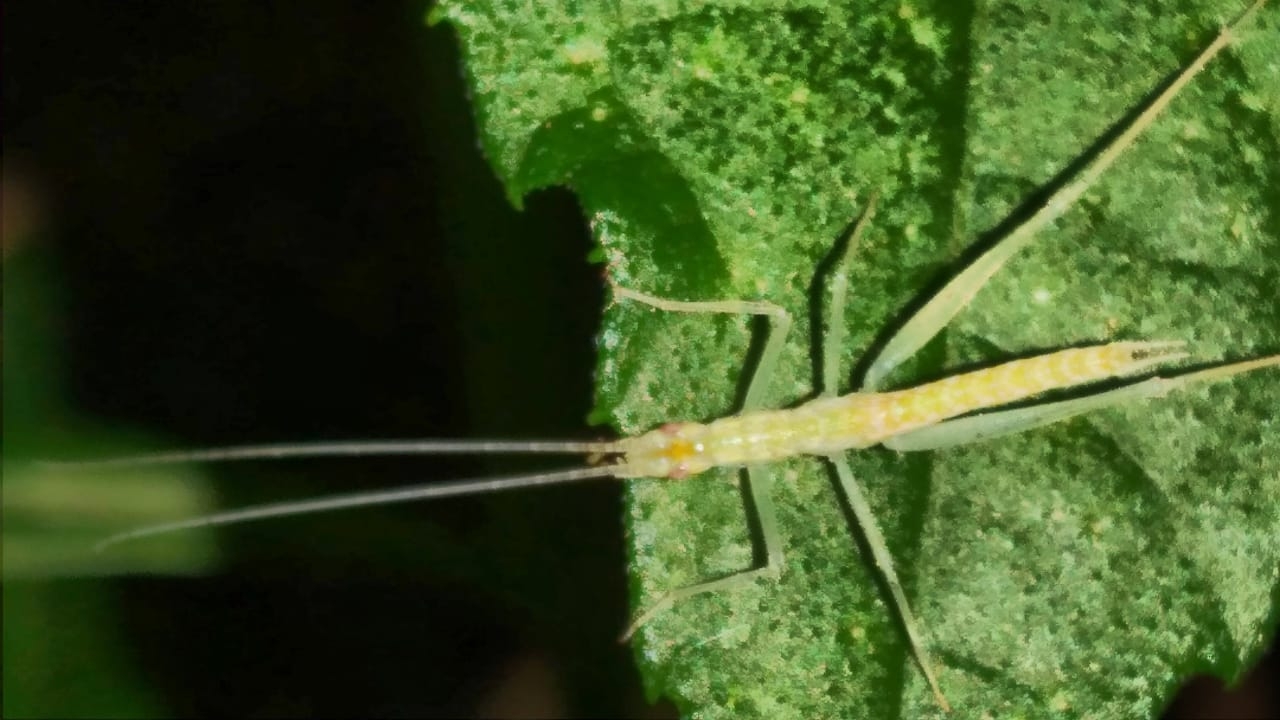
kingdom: Animalia
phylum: Arthropoda
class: Insecta
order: Orthoptera
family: Gryllidae
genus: Oecanthus
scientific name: Oecanthus leptogrammus
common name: Thin-lined tree cricket
